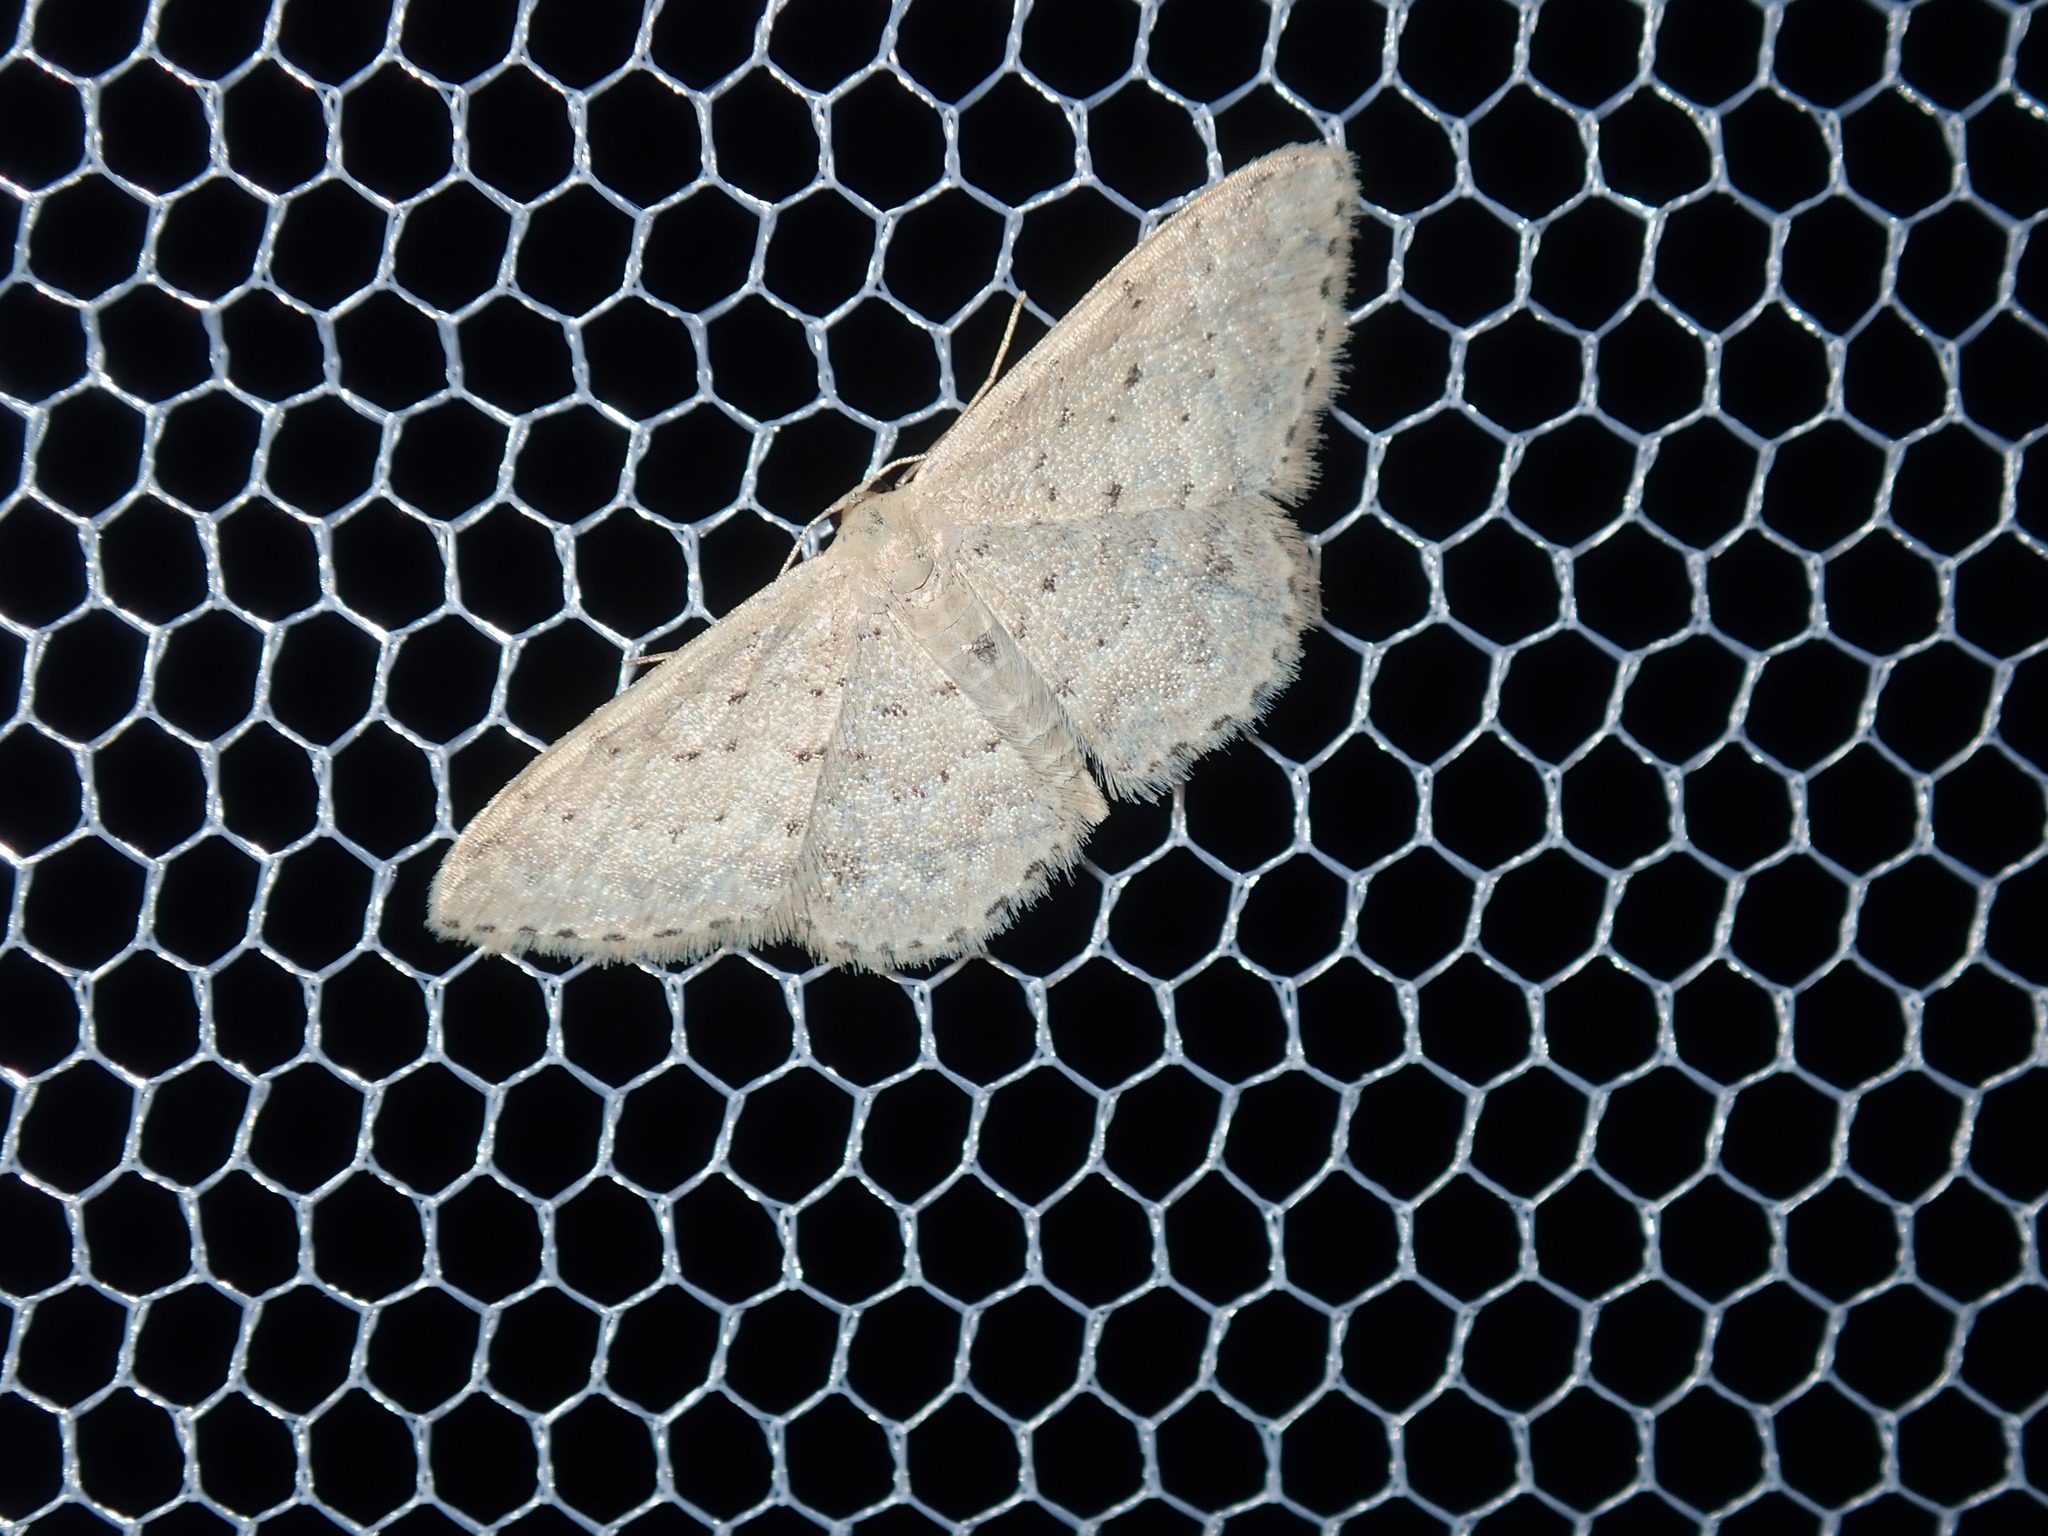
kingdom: Animalia
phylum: Arthropoda
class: Insecta
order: Lepidoptera
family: Geometridae
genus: Idaea
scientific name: Idaea philocosma
